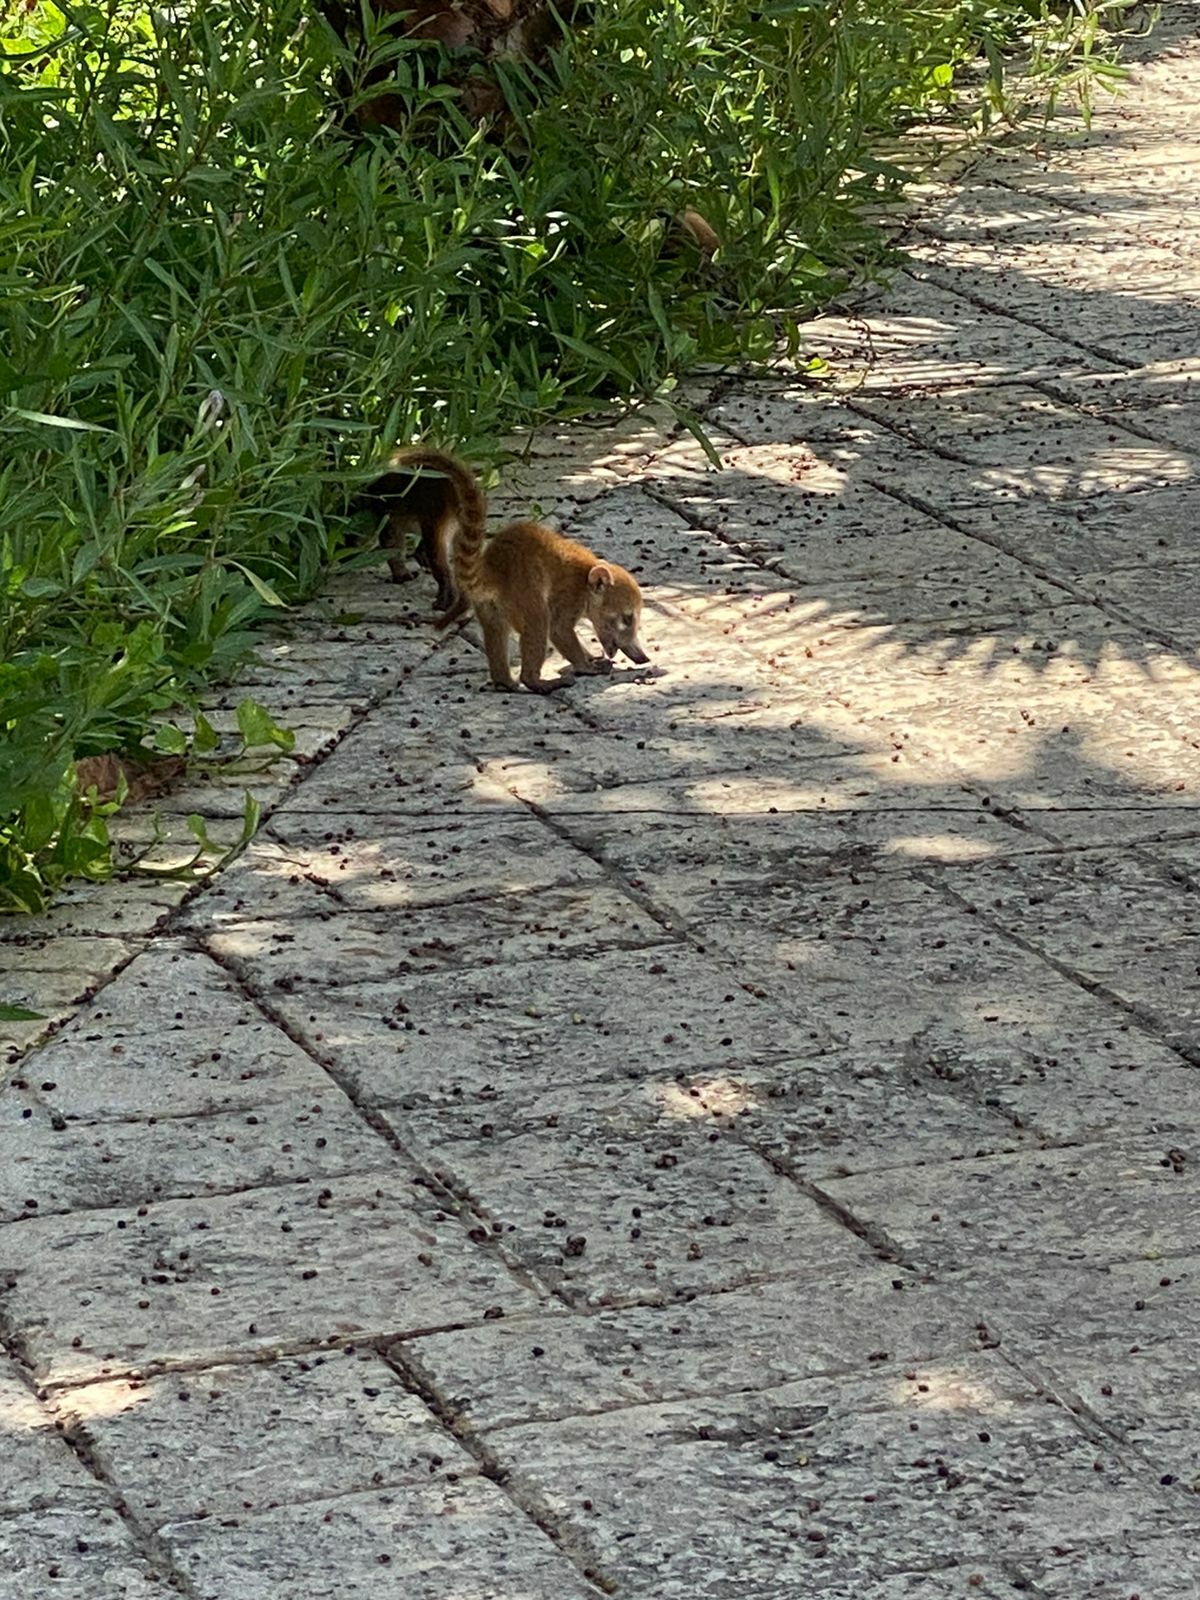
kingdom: Animalia
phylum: Chordata
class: Mammalia
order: Carnivora
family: Procyonidae
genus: Nasua
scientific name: Nasua narica
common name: White-nosed coati
